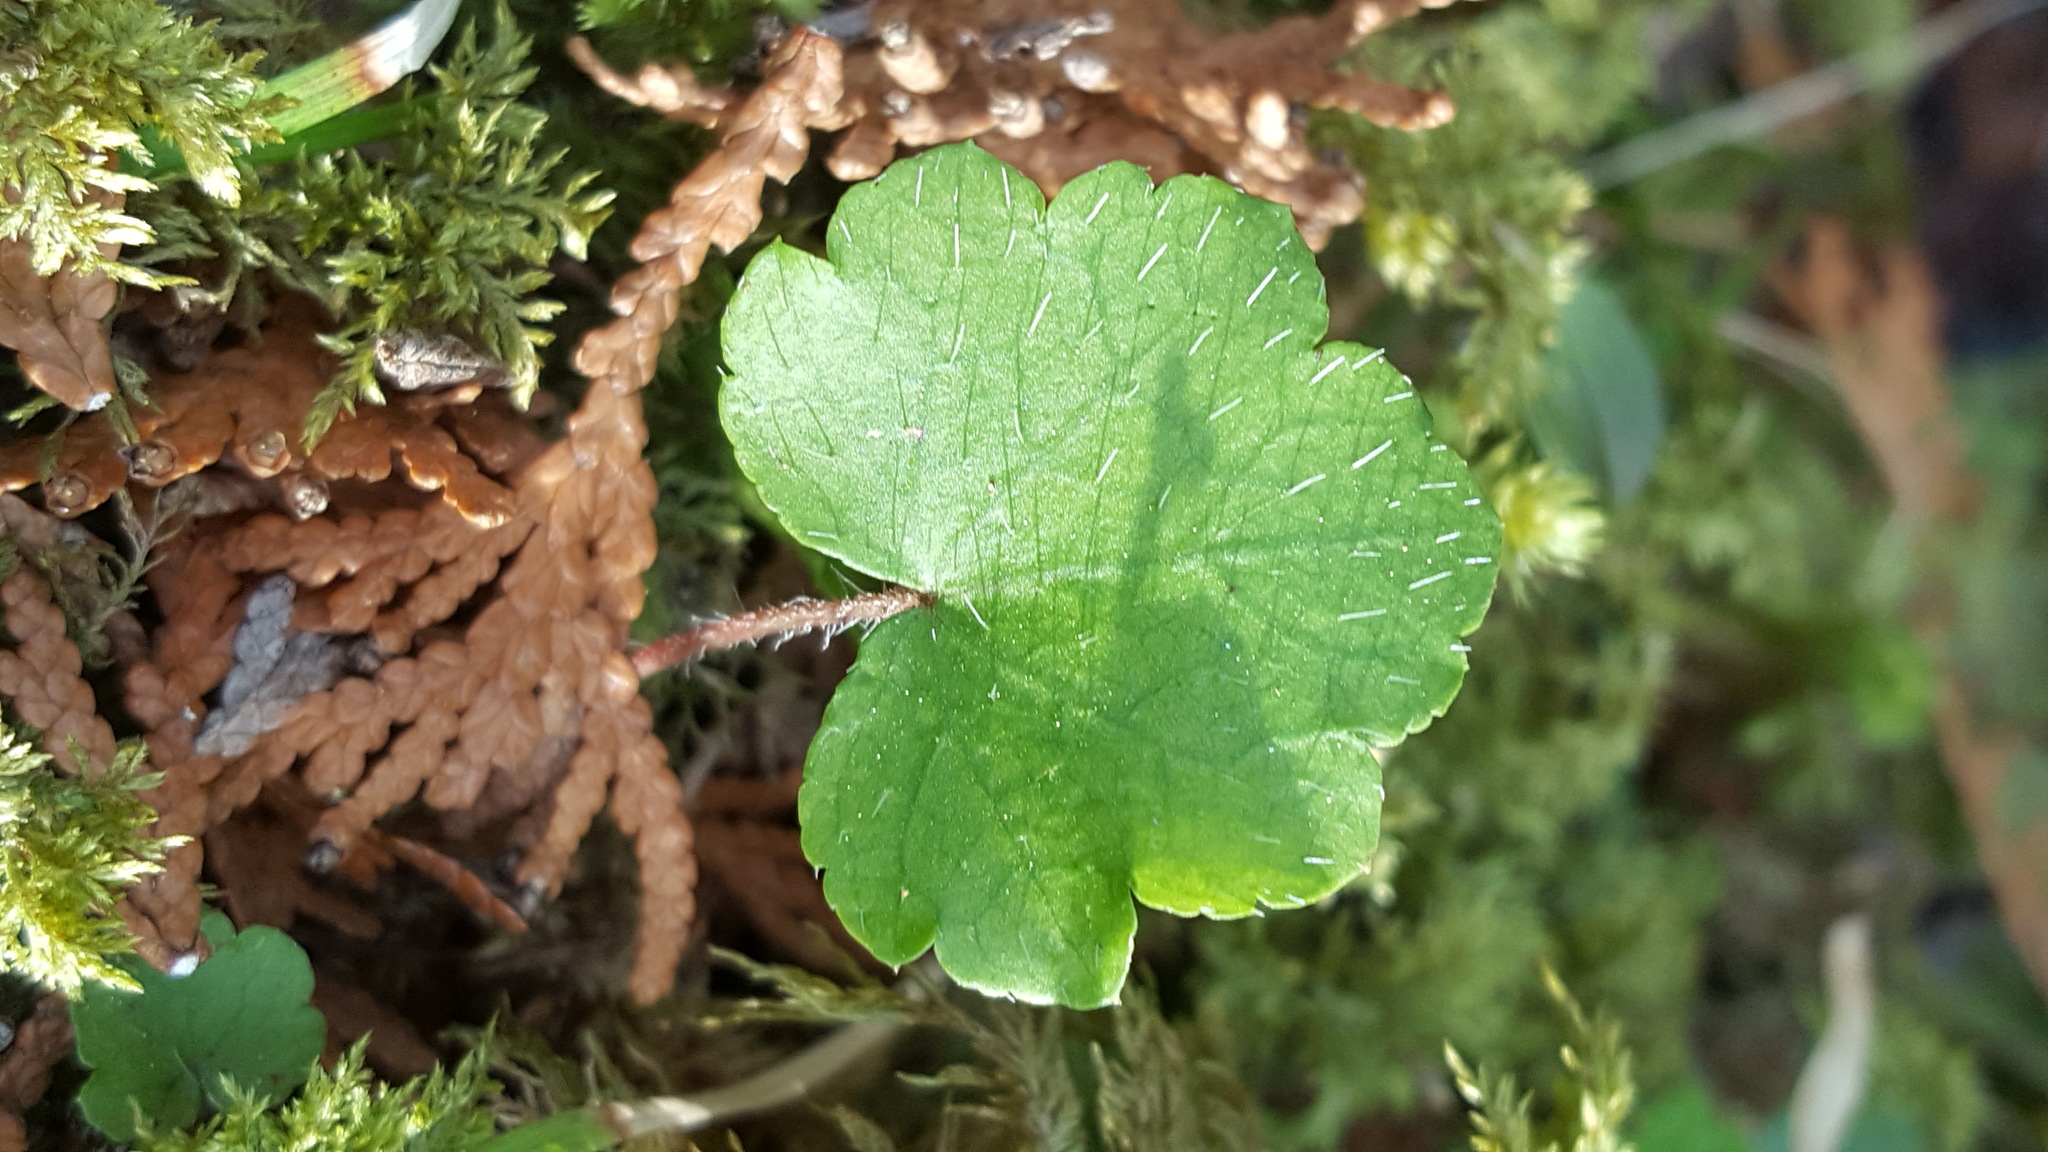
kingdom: Plantae
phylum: Tracheophyta
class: Magnoliopsida
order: Saxifragales
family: Saxifragaceae
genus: Mitella
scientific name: Mitella nuda
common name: Bare-stemmed bishop's-cap
